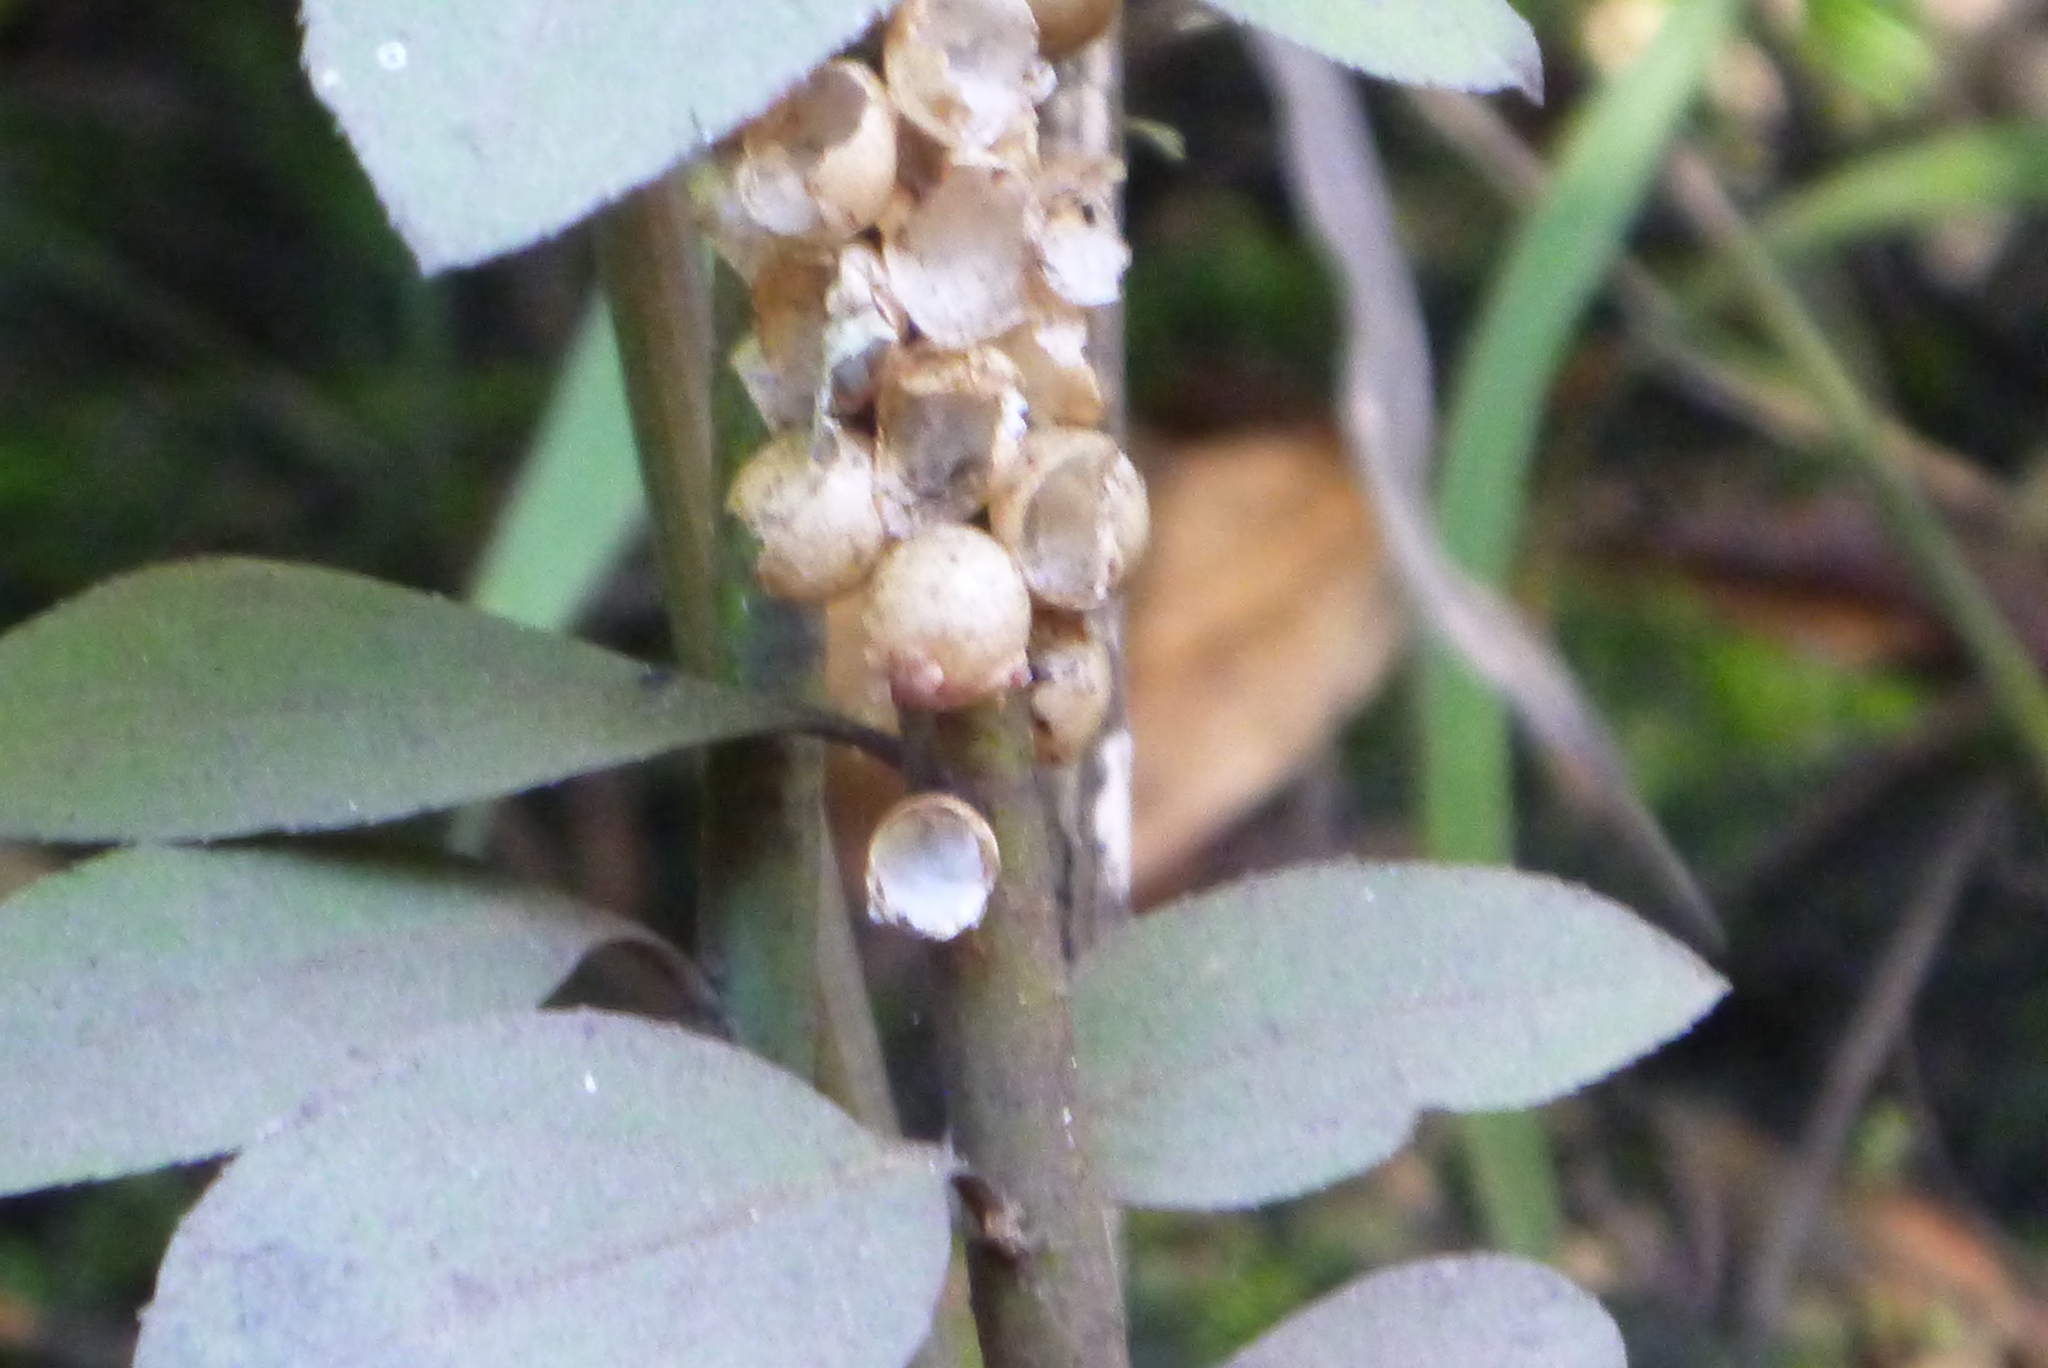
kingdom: Animalia
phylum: Mollusca
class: Gastropoda
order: Architaenioglossa
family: Ampullariidae
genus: Pomacea
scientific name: Pomacea paludosa
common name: Florida applesnail
